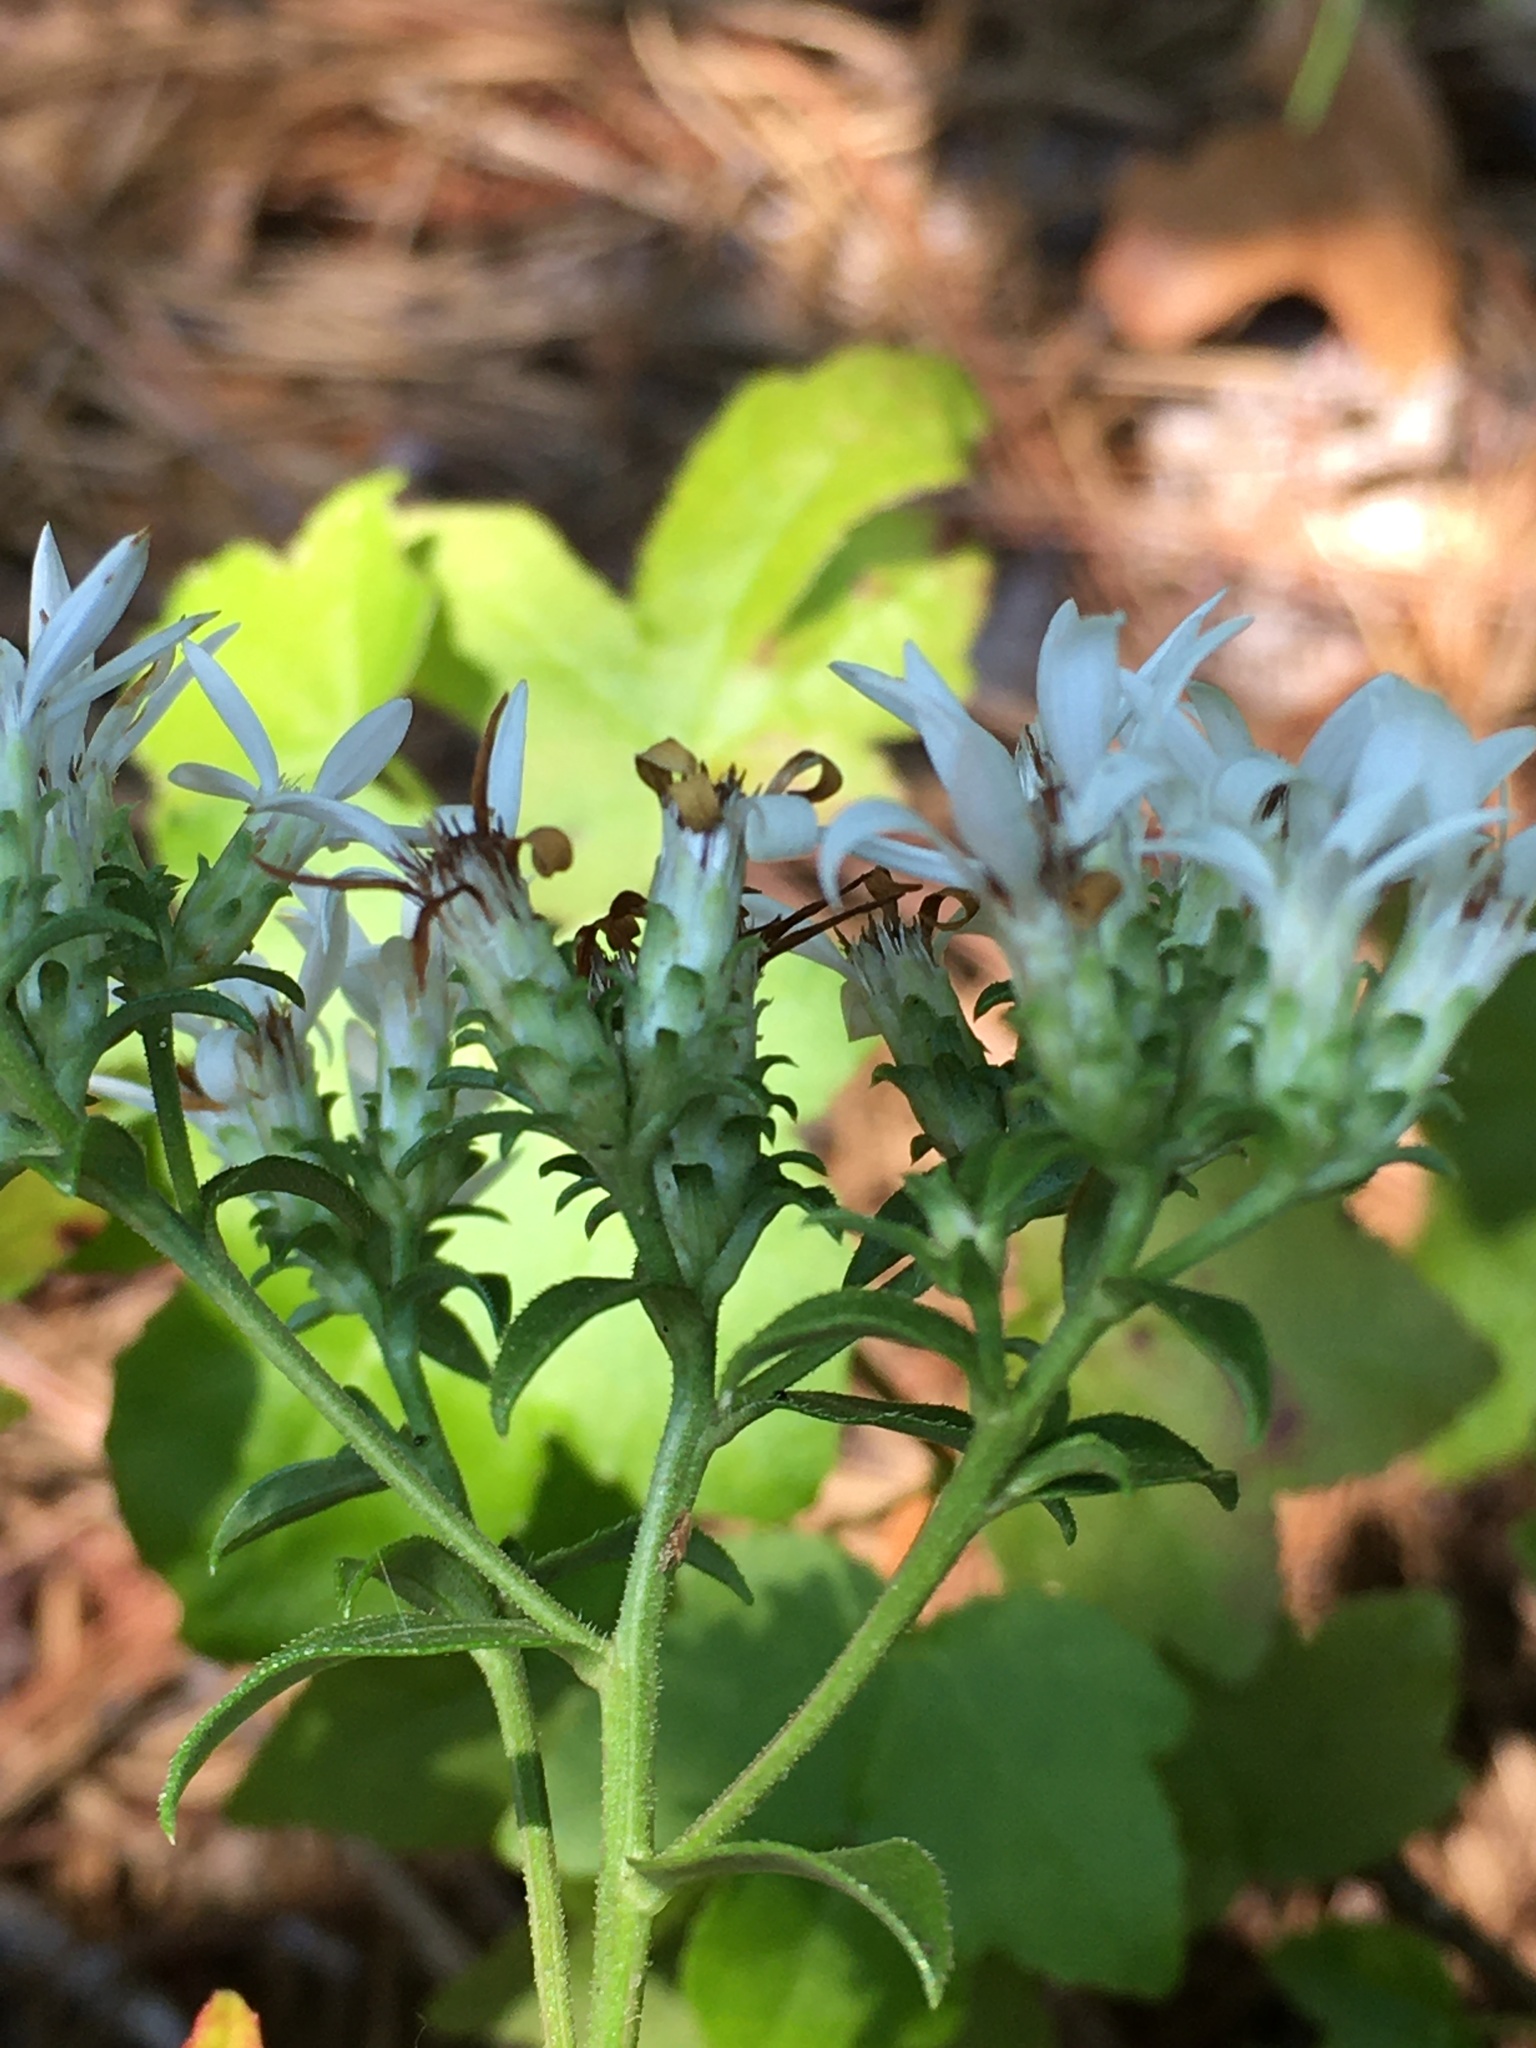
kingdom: Plantae
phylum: Tracheophyta
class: Magnoliopsida
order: Asterales
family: Asteraceae
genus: Sericocarpus
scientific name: Sericocarpus asteroides
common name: Toothed white-top aster
